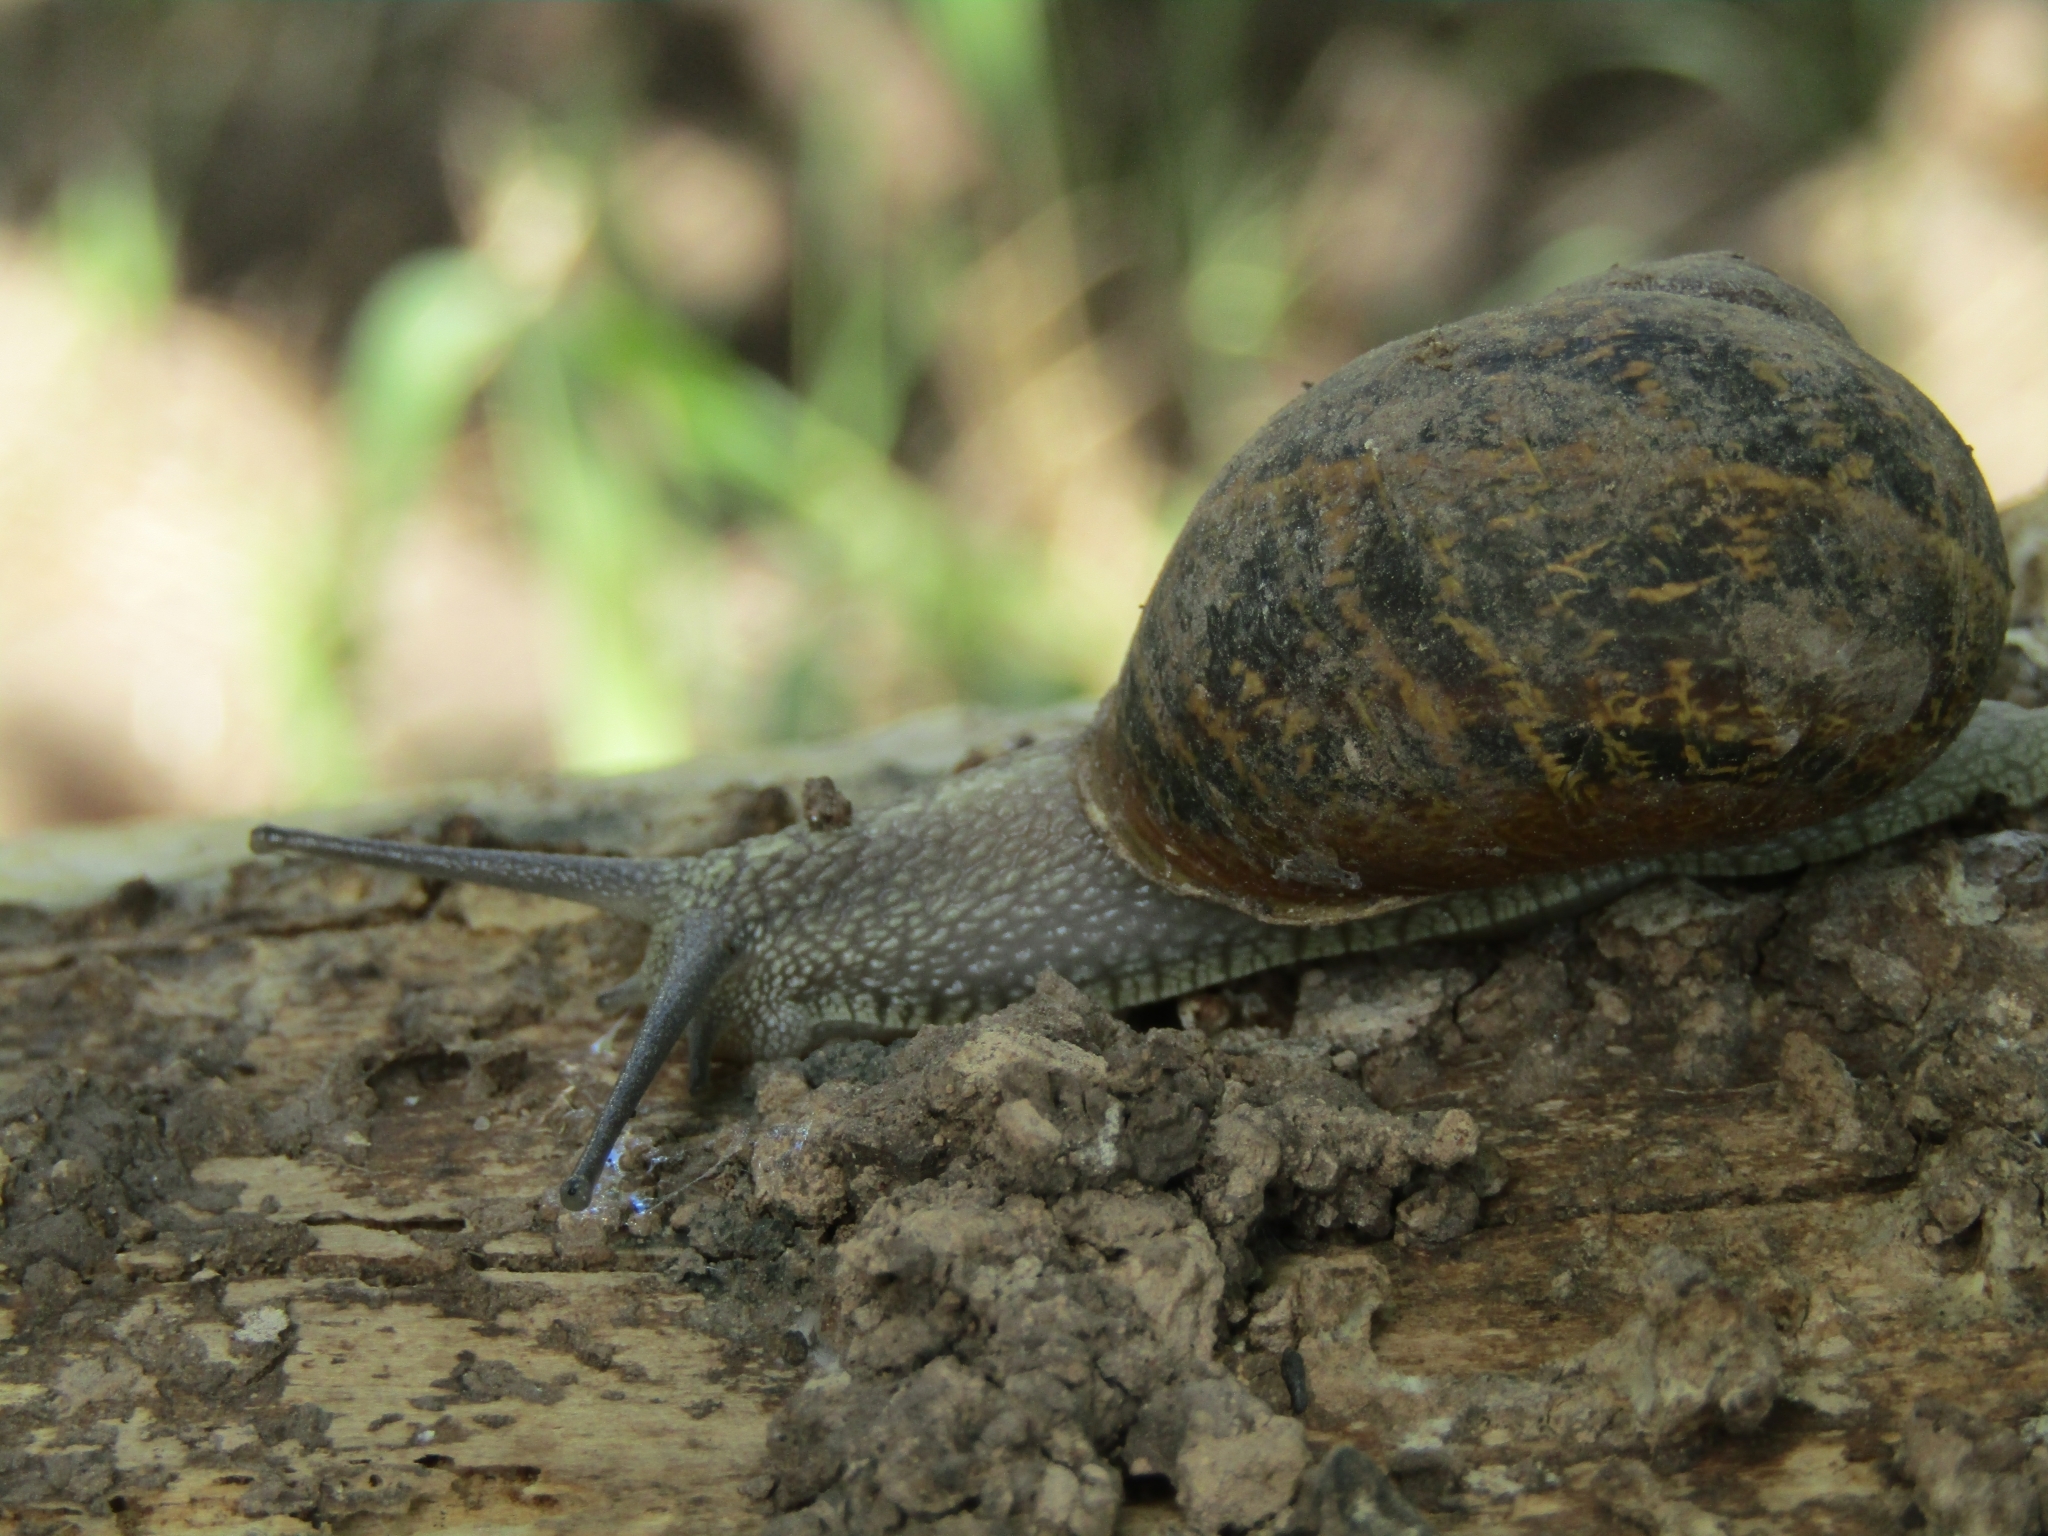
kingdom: Animalia
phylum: Mollusca
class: Gastropoda
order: Stylommatophora
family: Helicidae
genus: Cornu
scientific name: Cornu aspersum
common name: Brown garden snail
